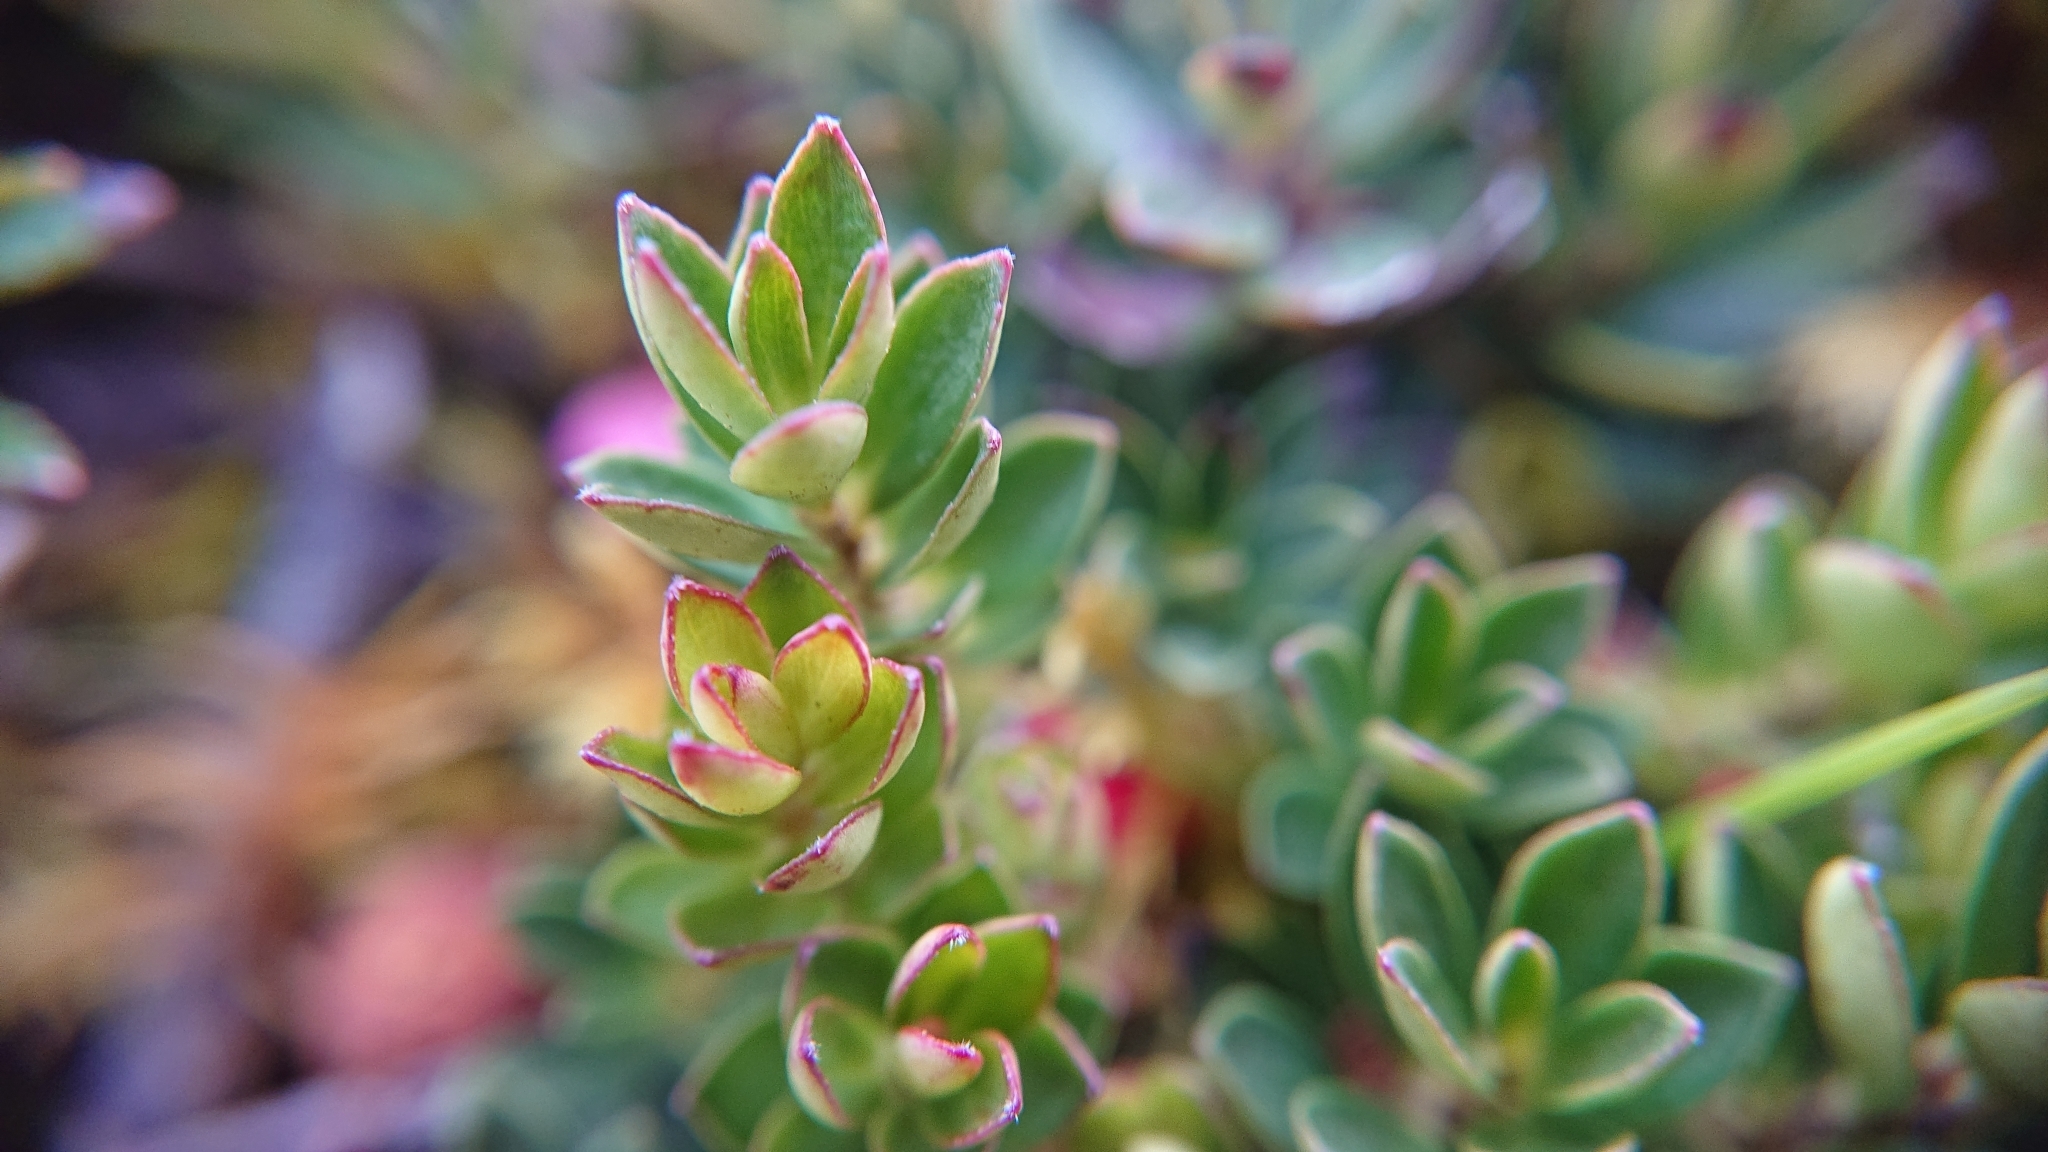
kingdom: Plantae
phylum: Tracheophyta
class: Magnoliopsida
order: Ericales
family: Ericaceae
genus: Disterigma
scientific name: Disterigma empetrifolium
